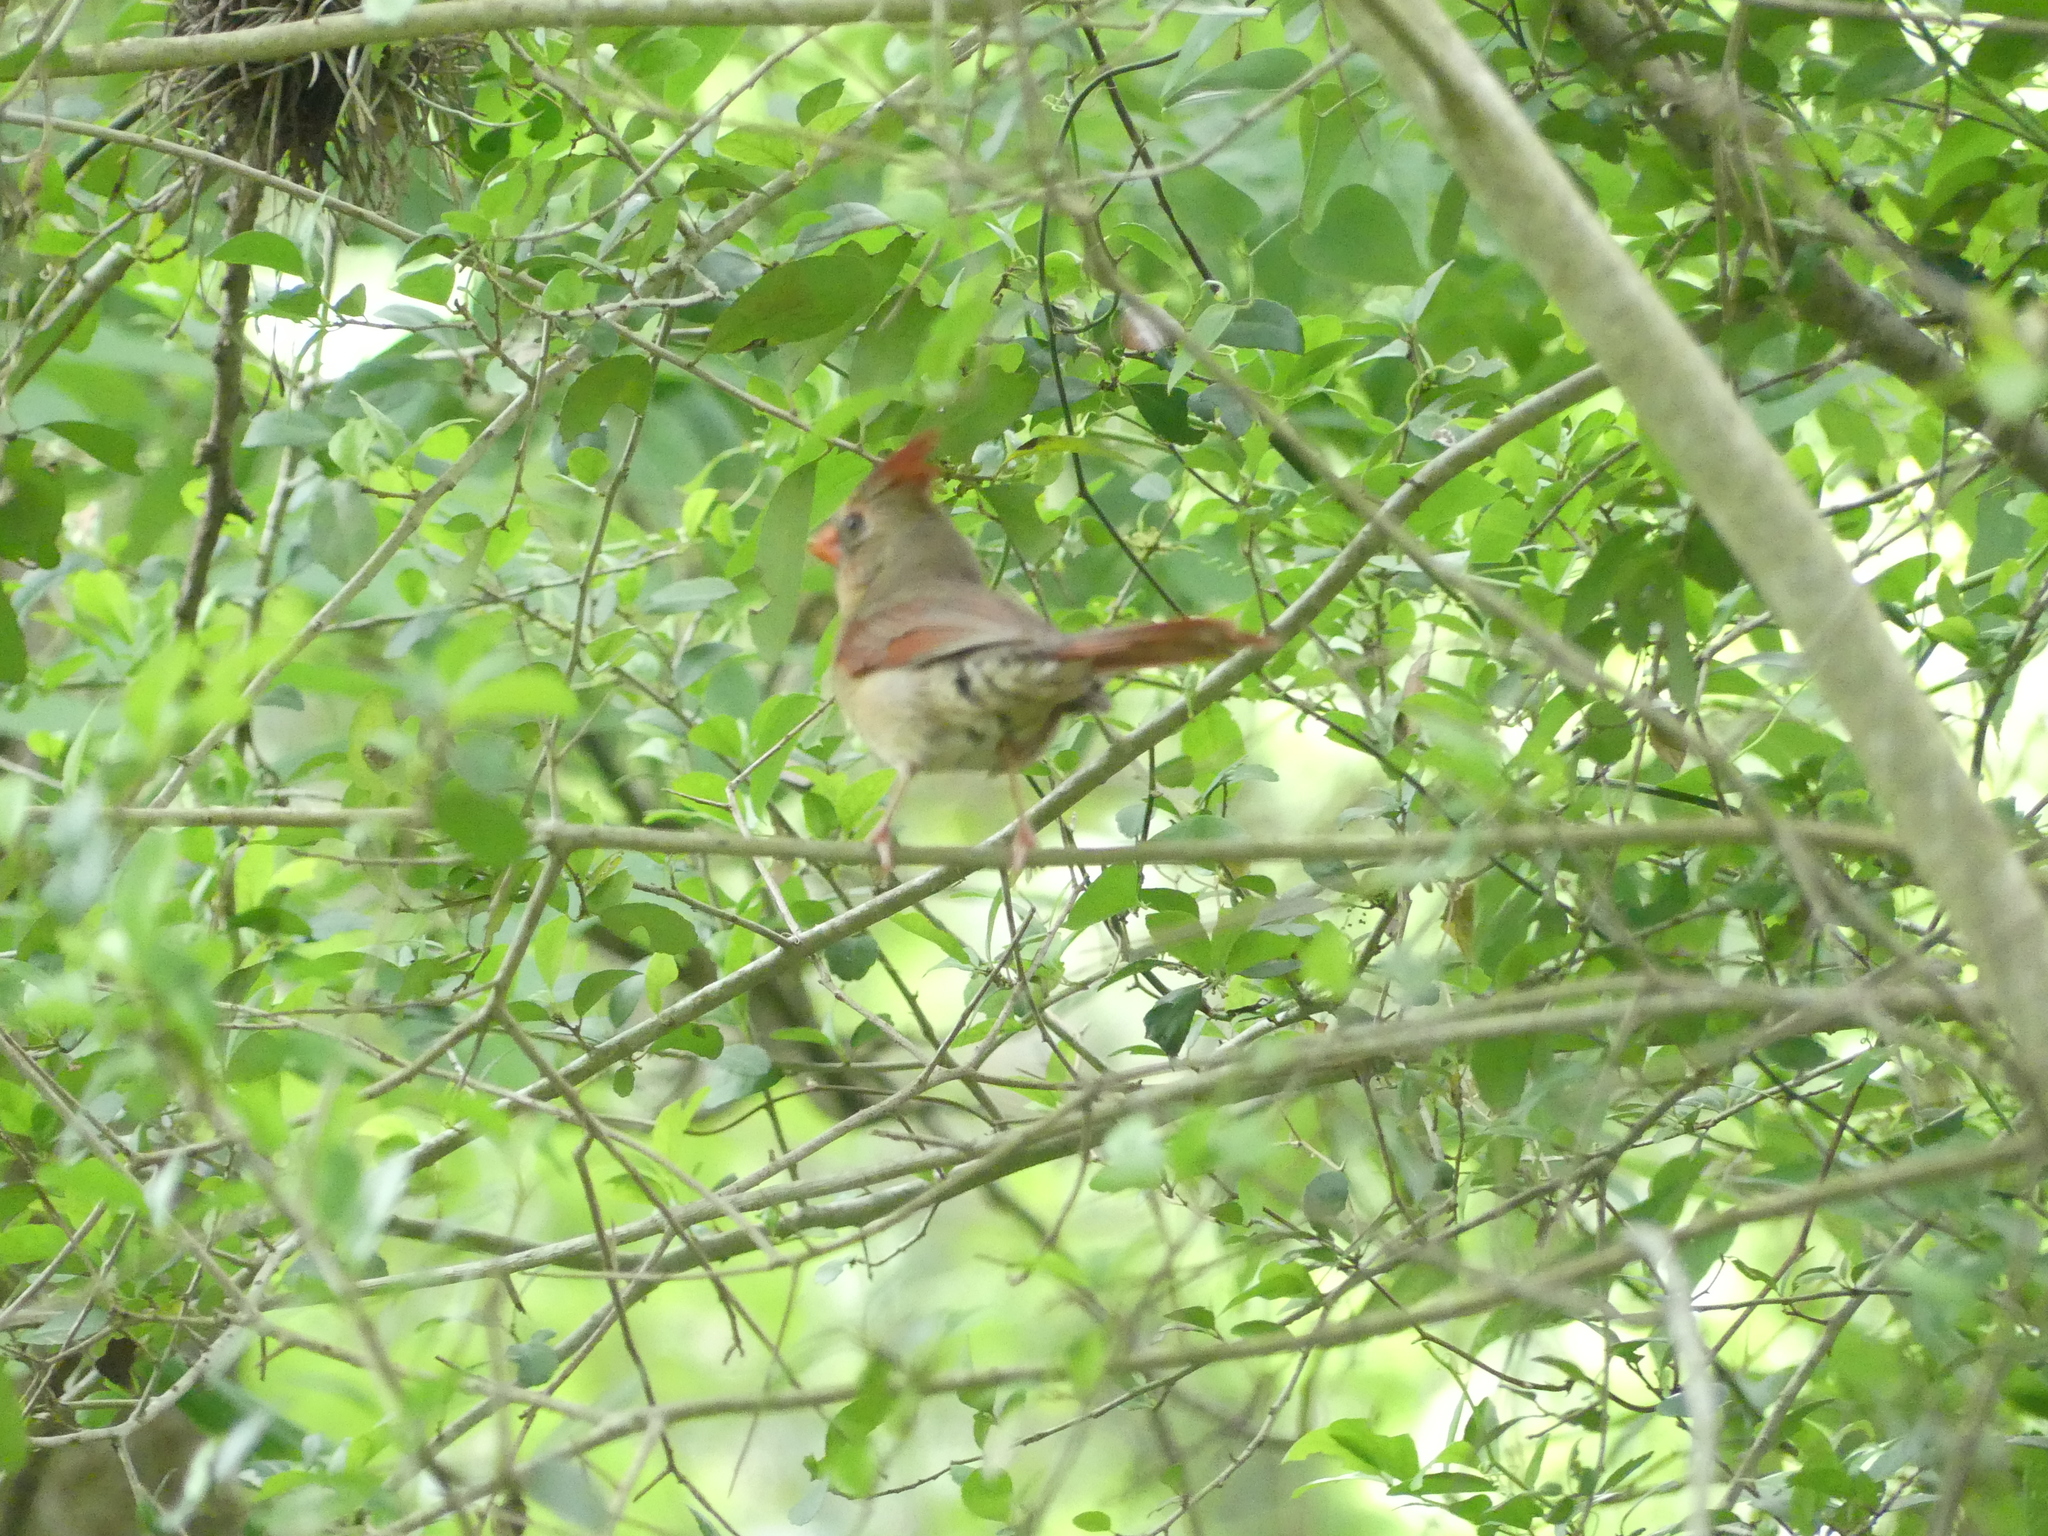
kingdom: Animalia
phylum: Chordata
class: Aves
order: Passeriformes
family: Cardinalidae
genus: Cardinalis
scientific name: Cardinalis cardinalis
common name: Northern cardinal
